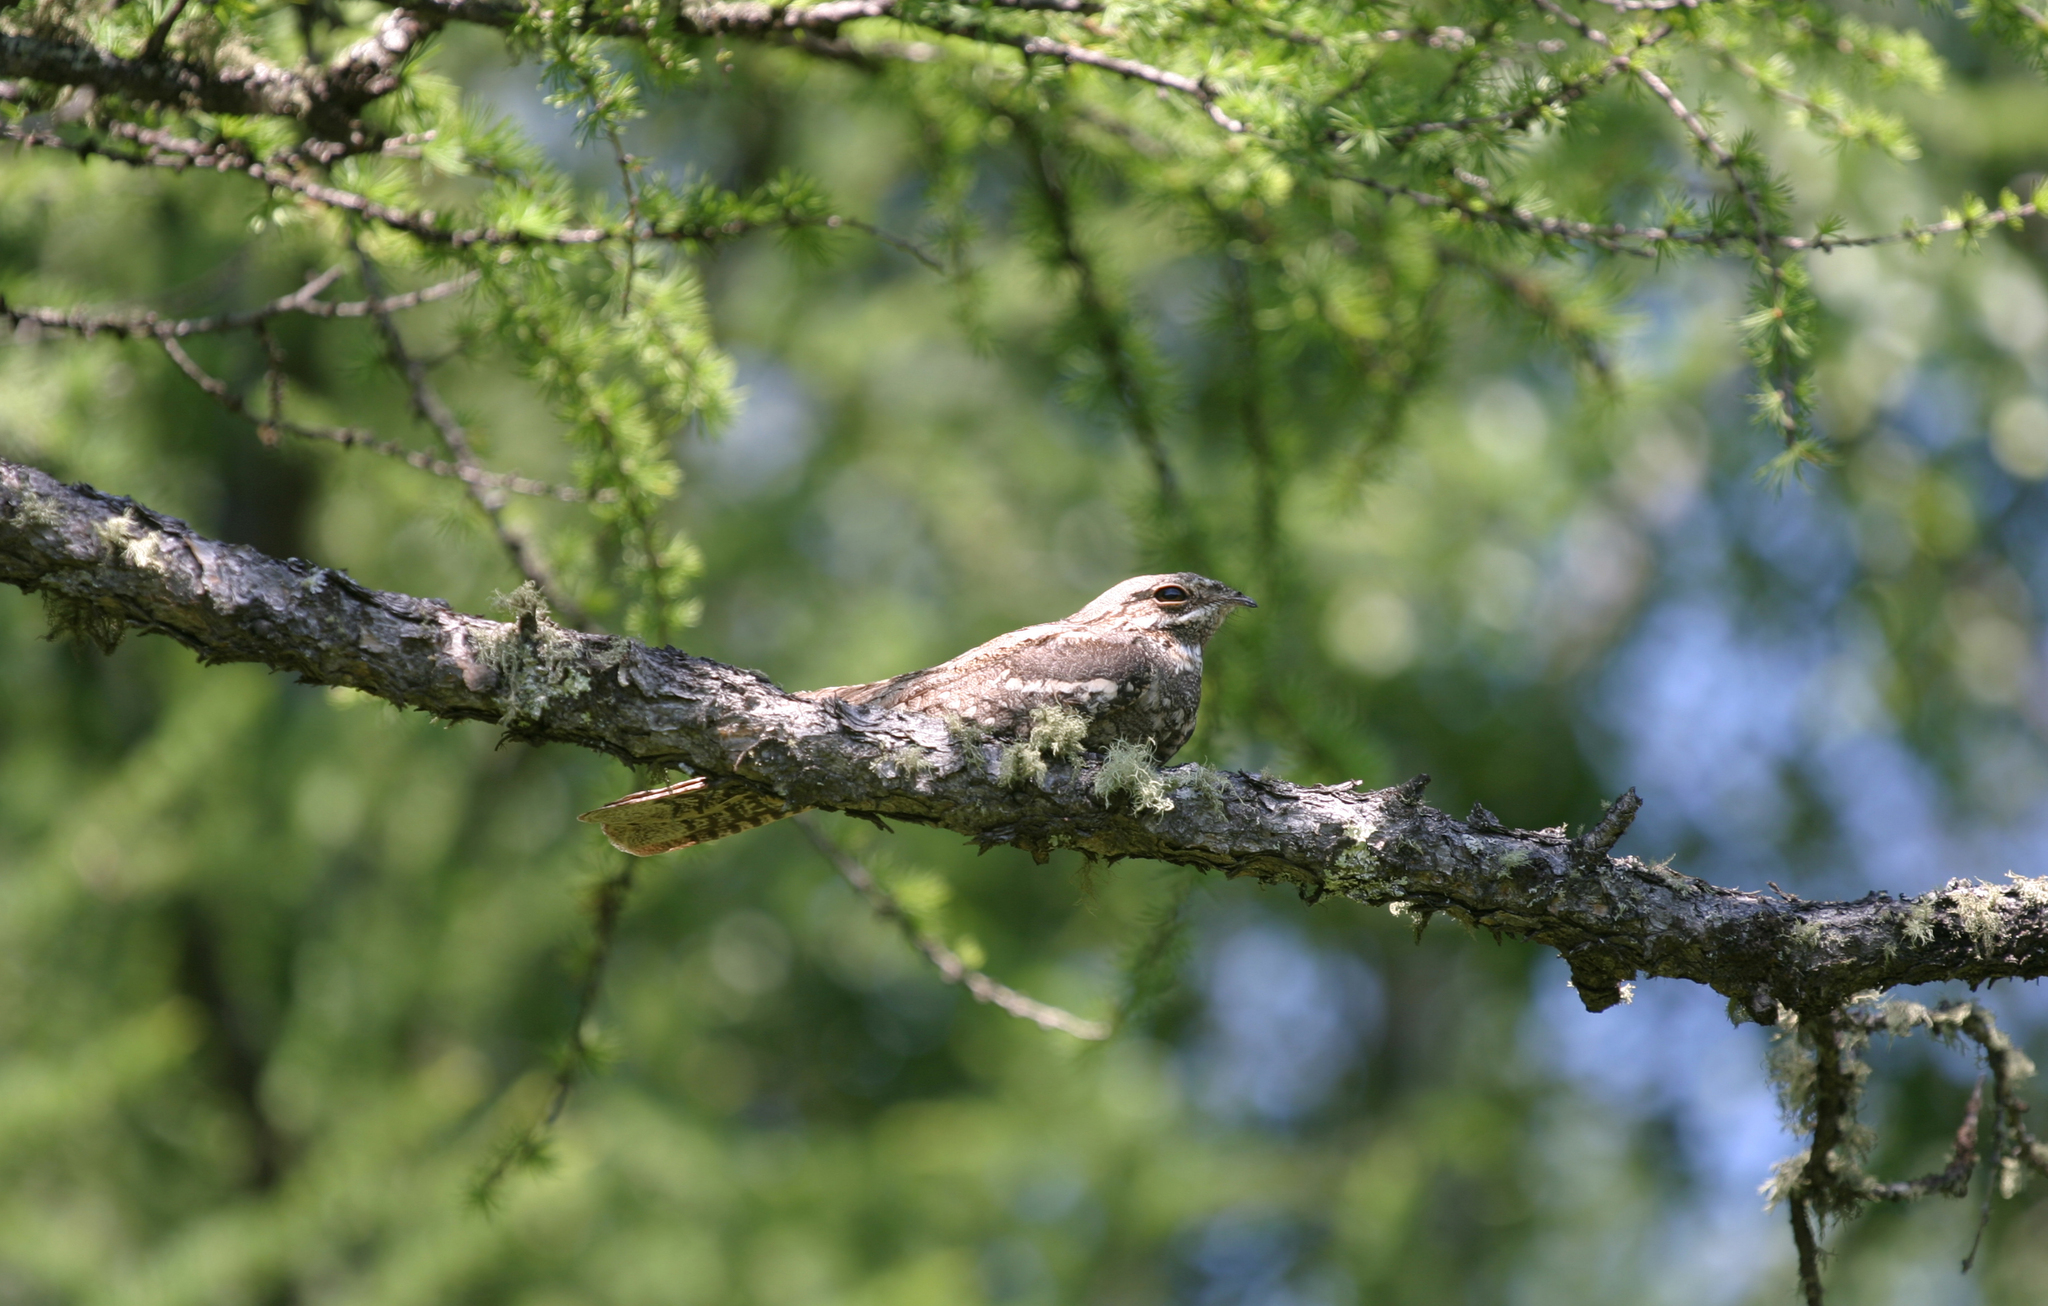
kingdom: Animalia
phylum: Chordata
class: Aves
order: Caprimulgiformes
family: Caprimulgidae
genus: Caprimulgus
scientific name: Caprimulgus europaeus
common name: European nightjar
